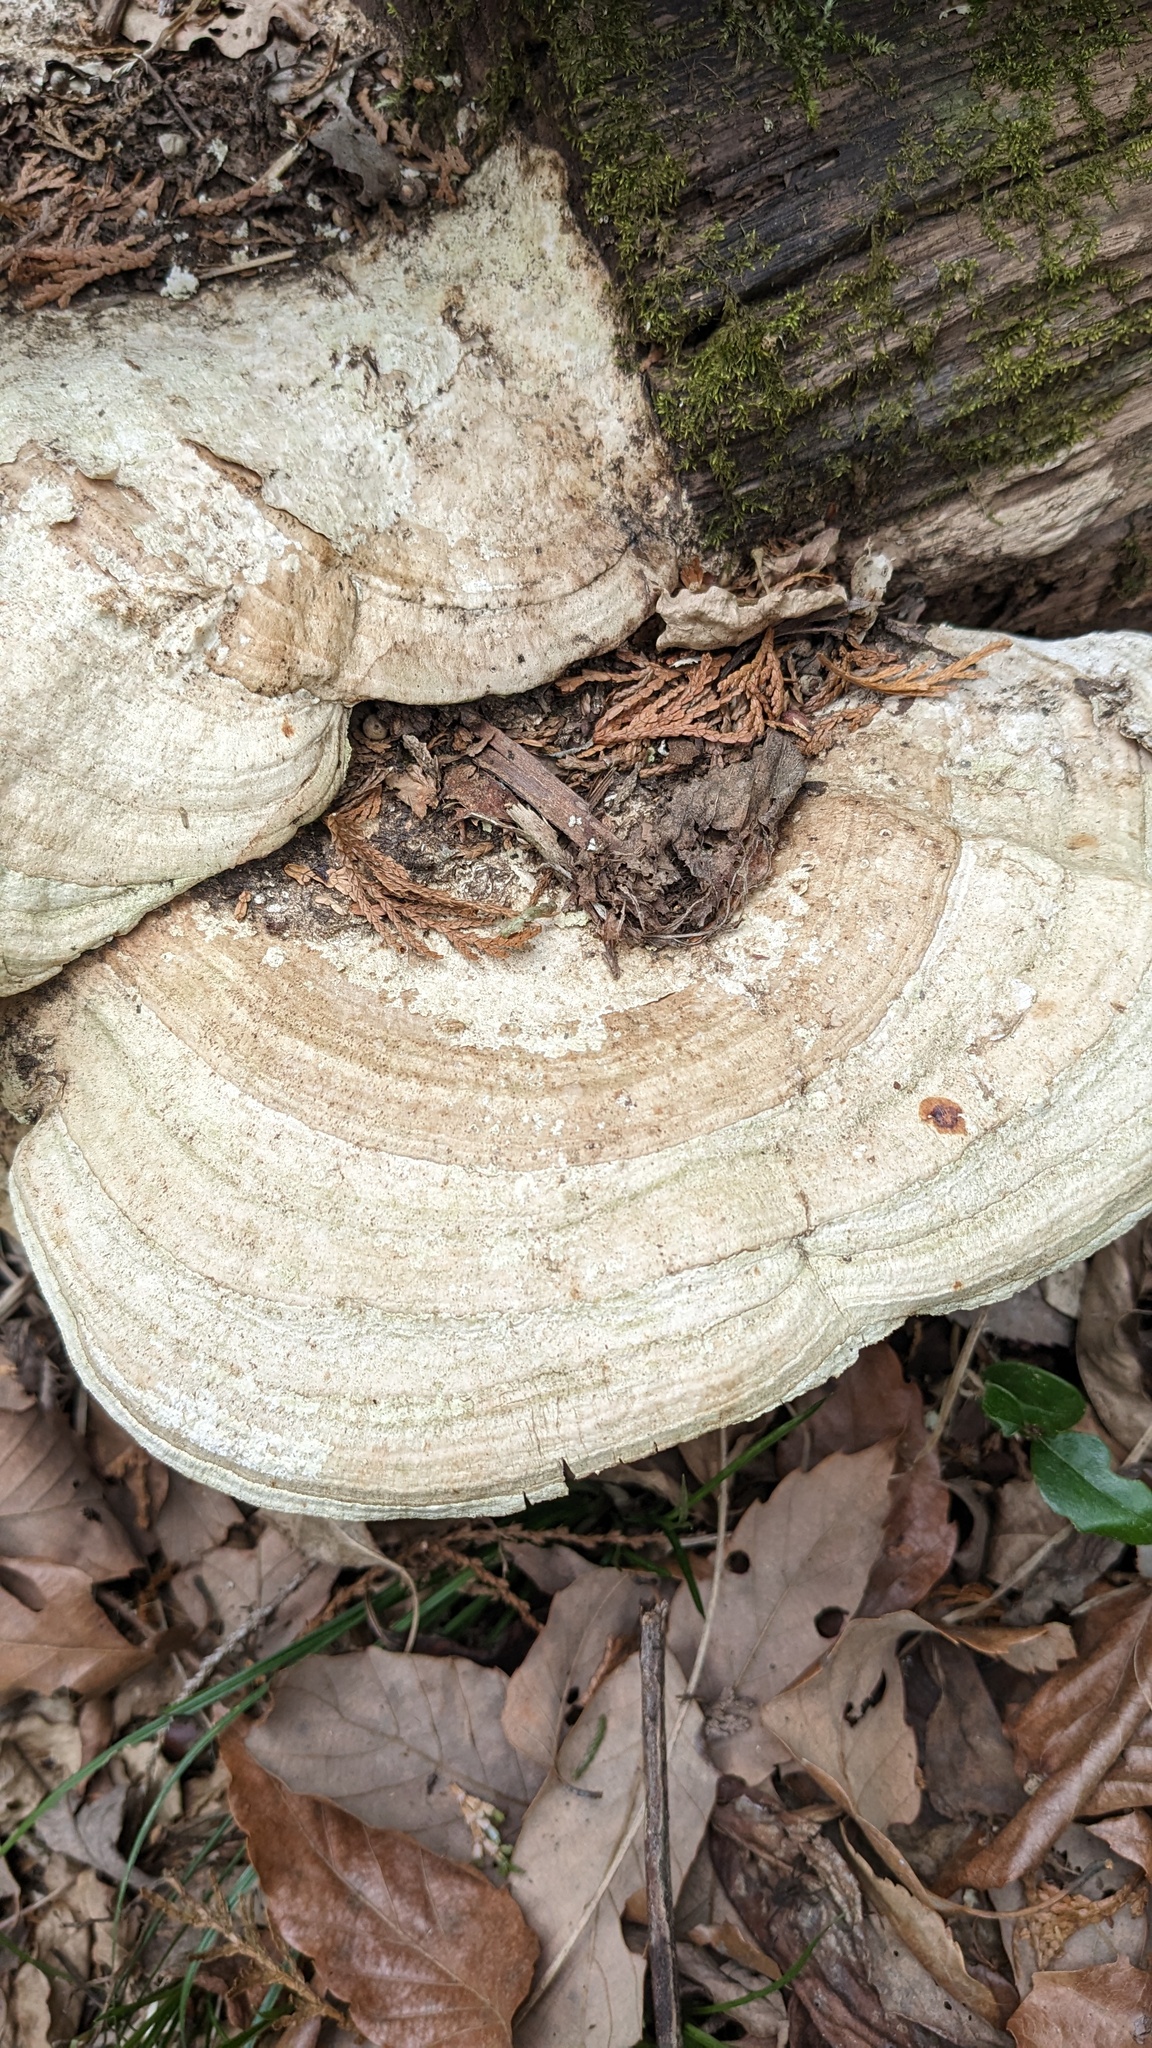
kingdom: Fungi
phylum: Basidiomycota
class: Agaricomycetes
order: Polyporales
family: Fomitopsidaceae
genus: Fomitopsis
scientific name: Fomitopsis
